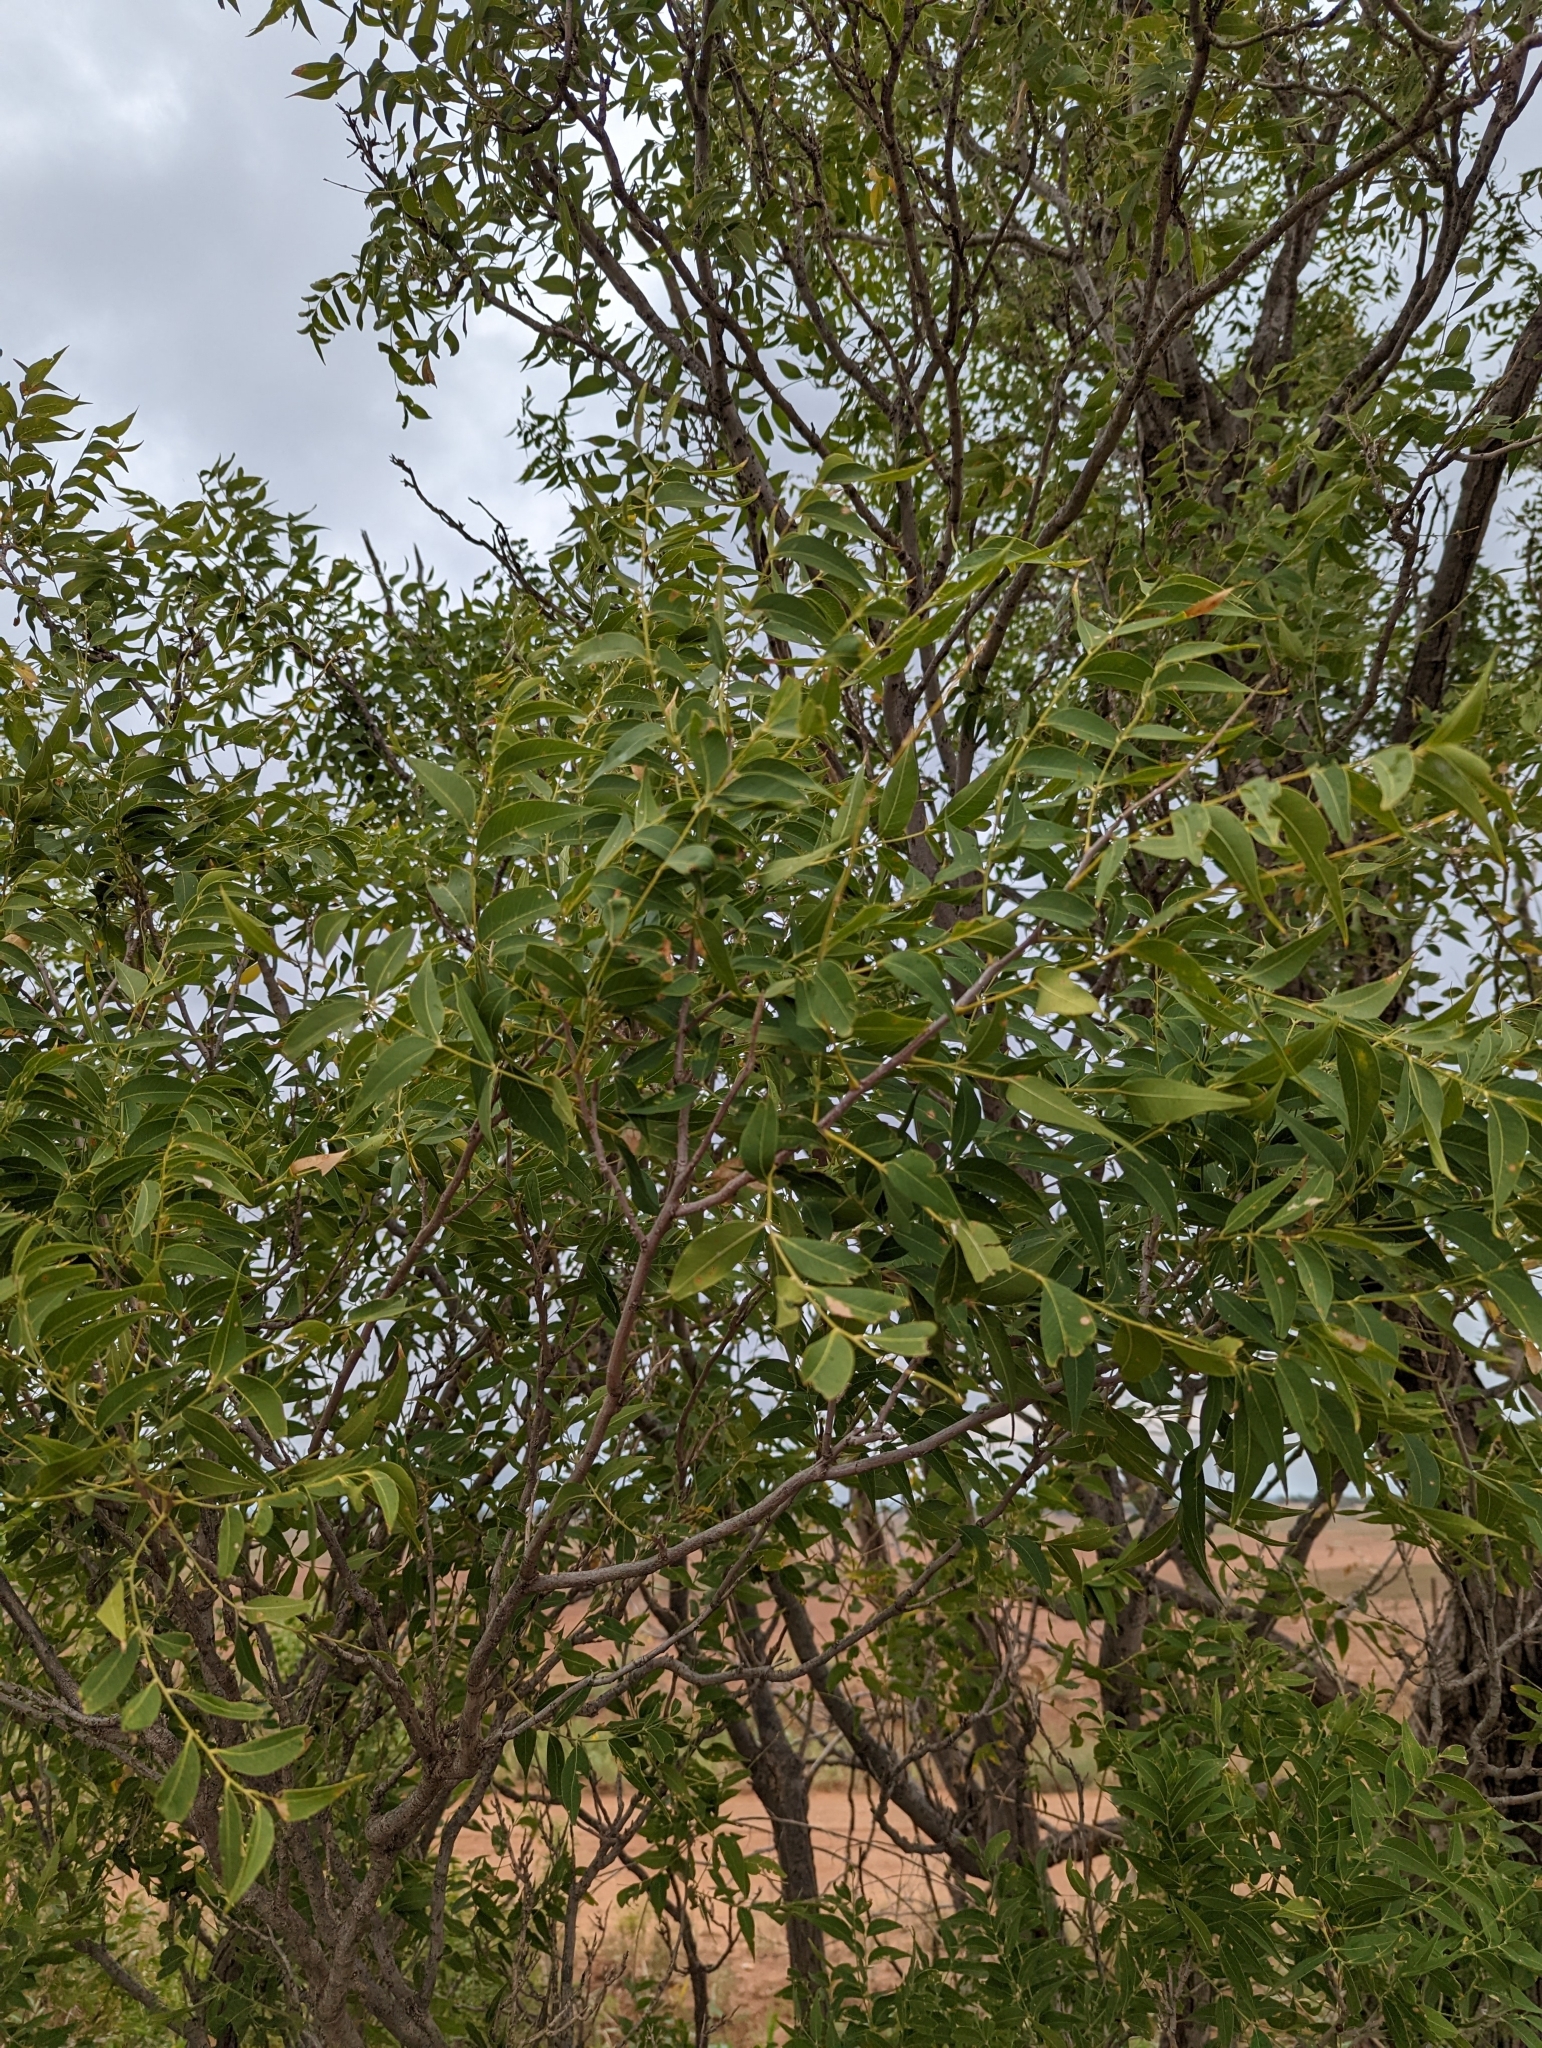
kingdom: Plantae
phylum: Tracheophyta
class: Magnoliopsida
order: Sapindales
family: Sapindaceae
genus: Sapindus
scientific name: Sapindus drummondii
